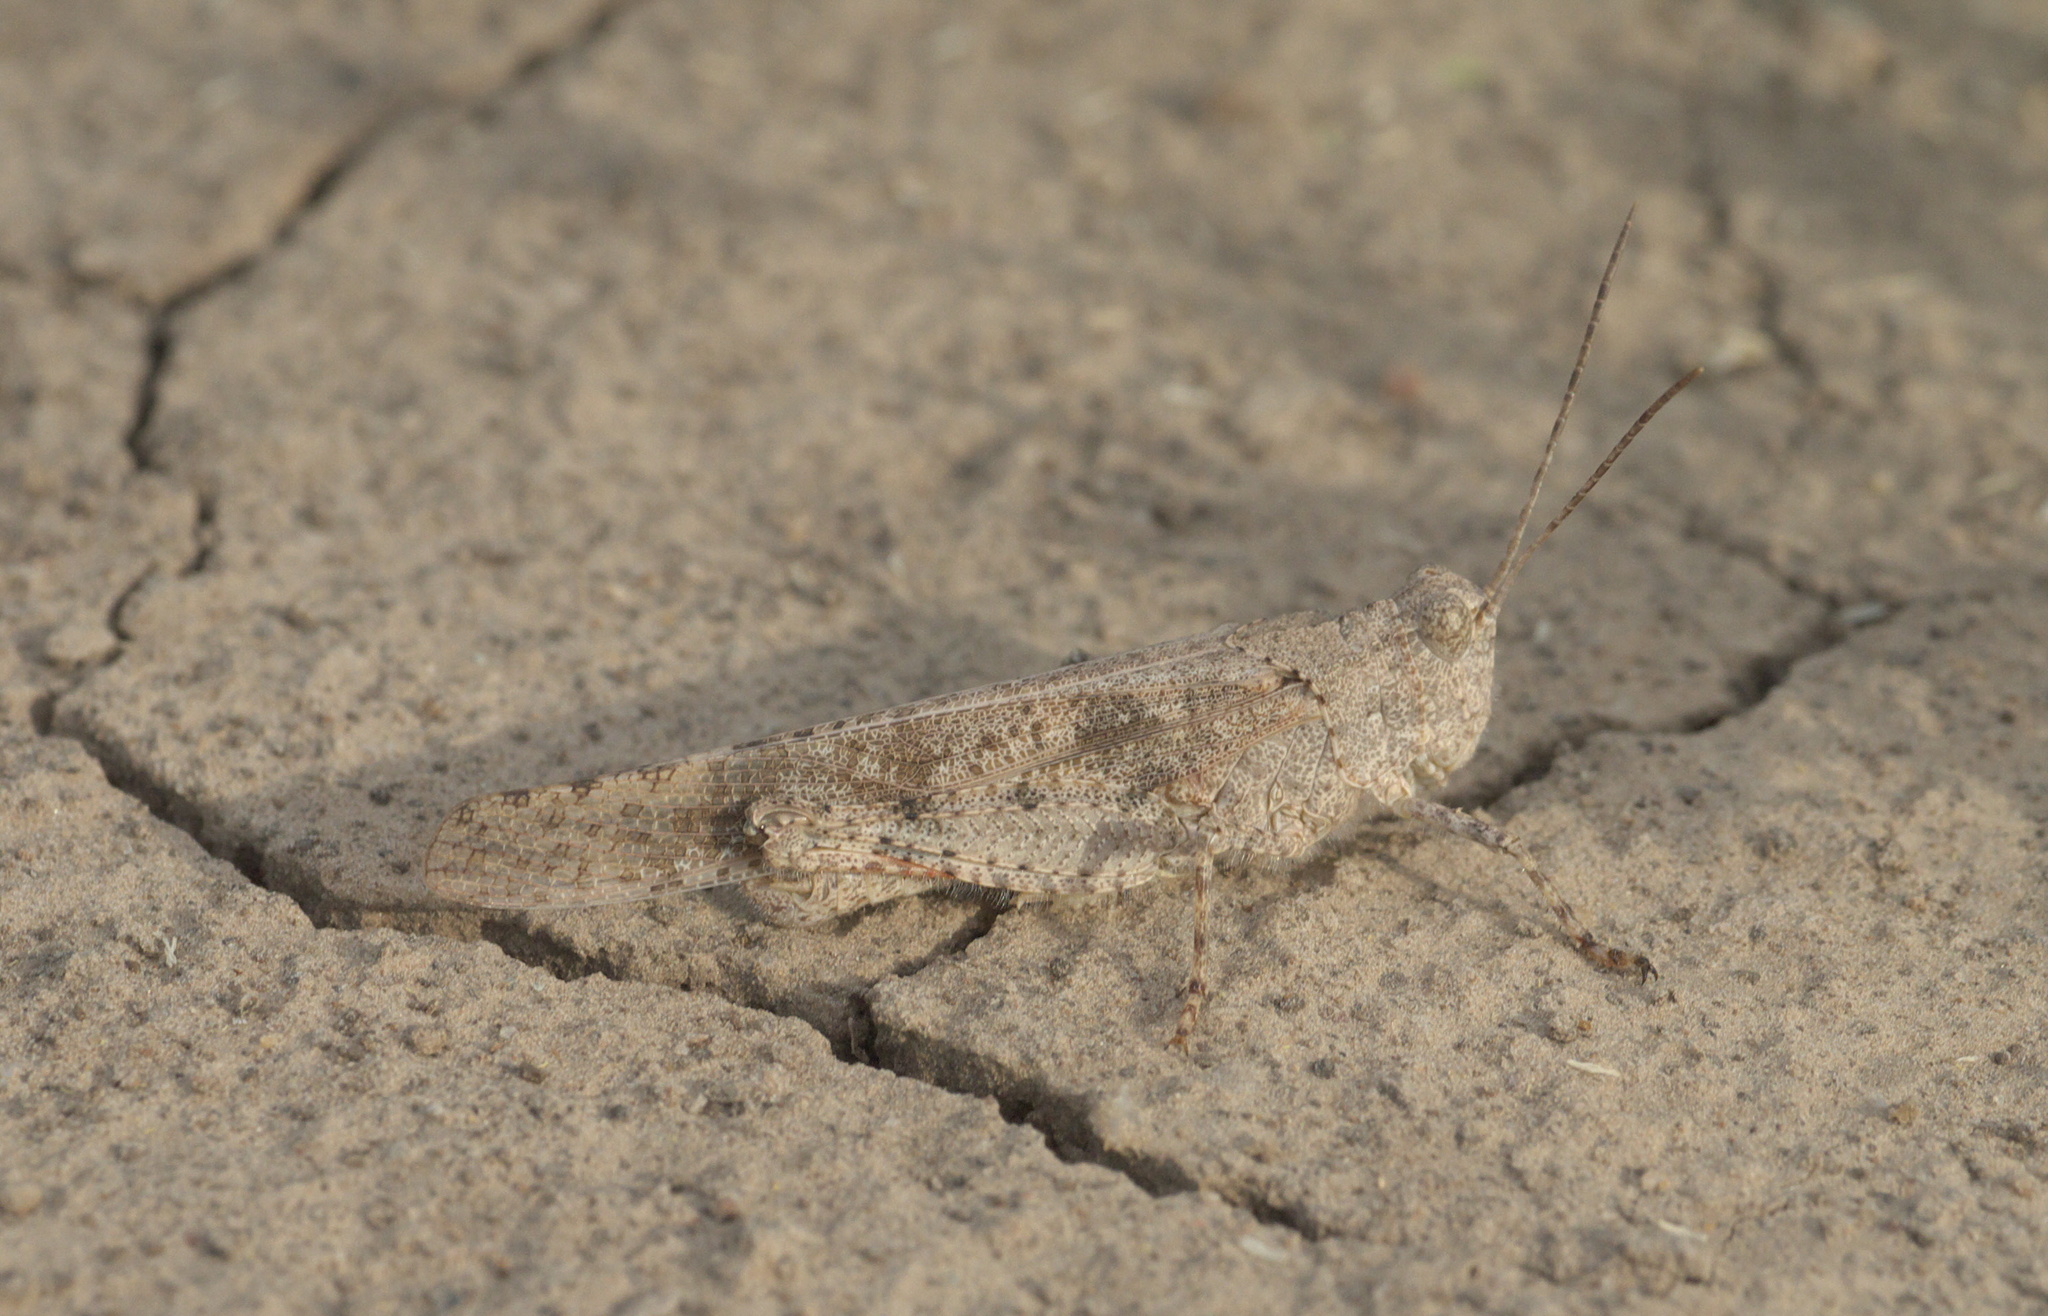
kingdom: Animalia
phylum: Arthropoda
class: Insecta
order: Orthoptera
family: Acrididae
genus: Trimerotropis
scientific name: Trimerotropis maritima
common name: Seaside locust
